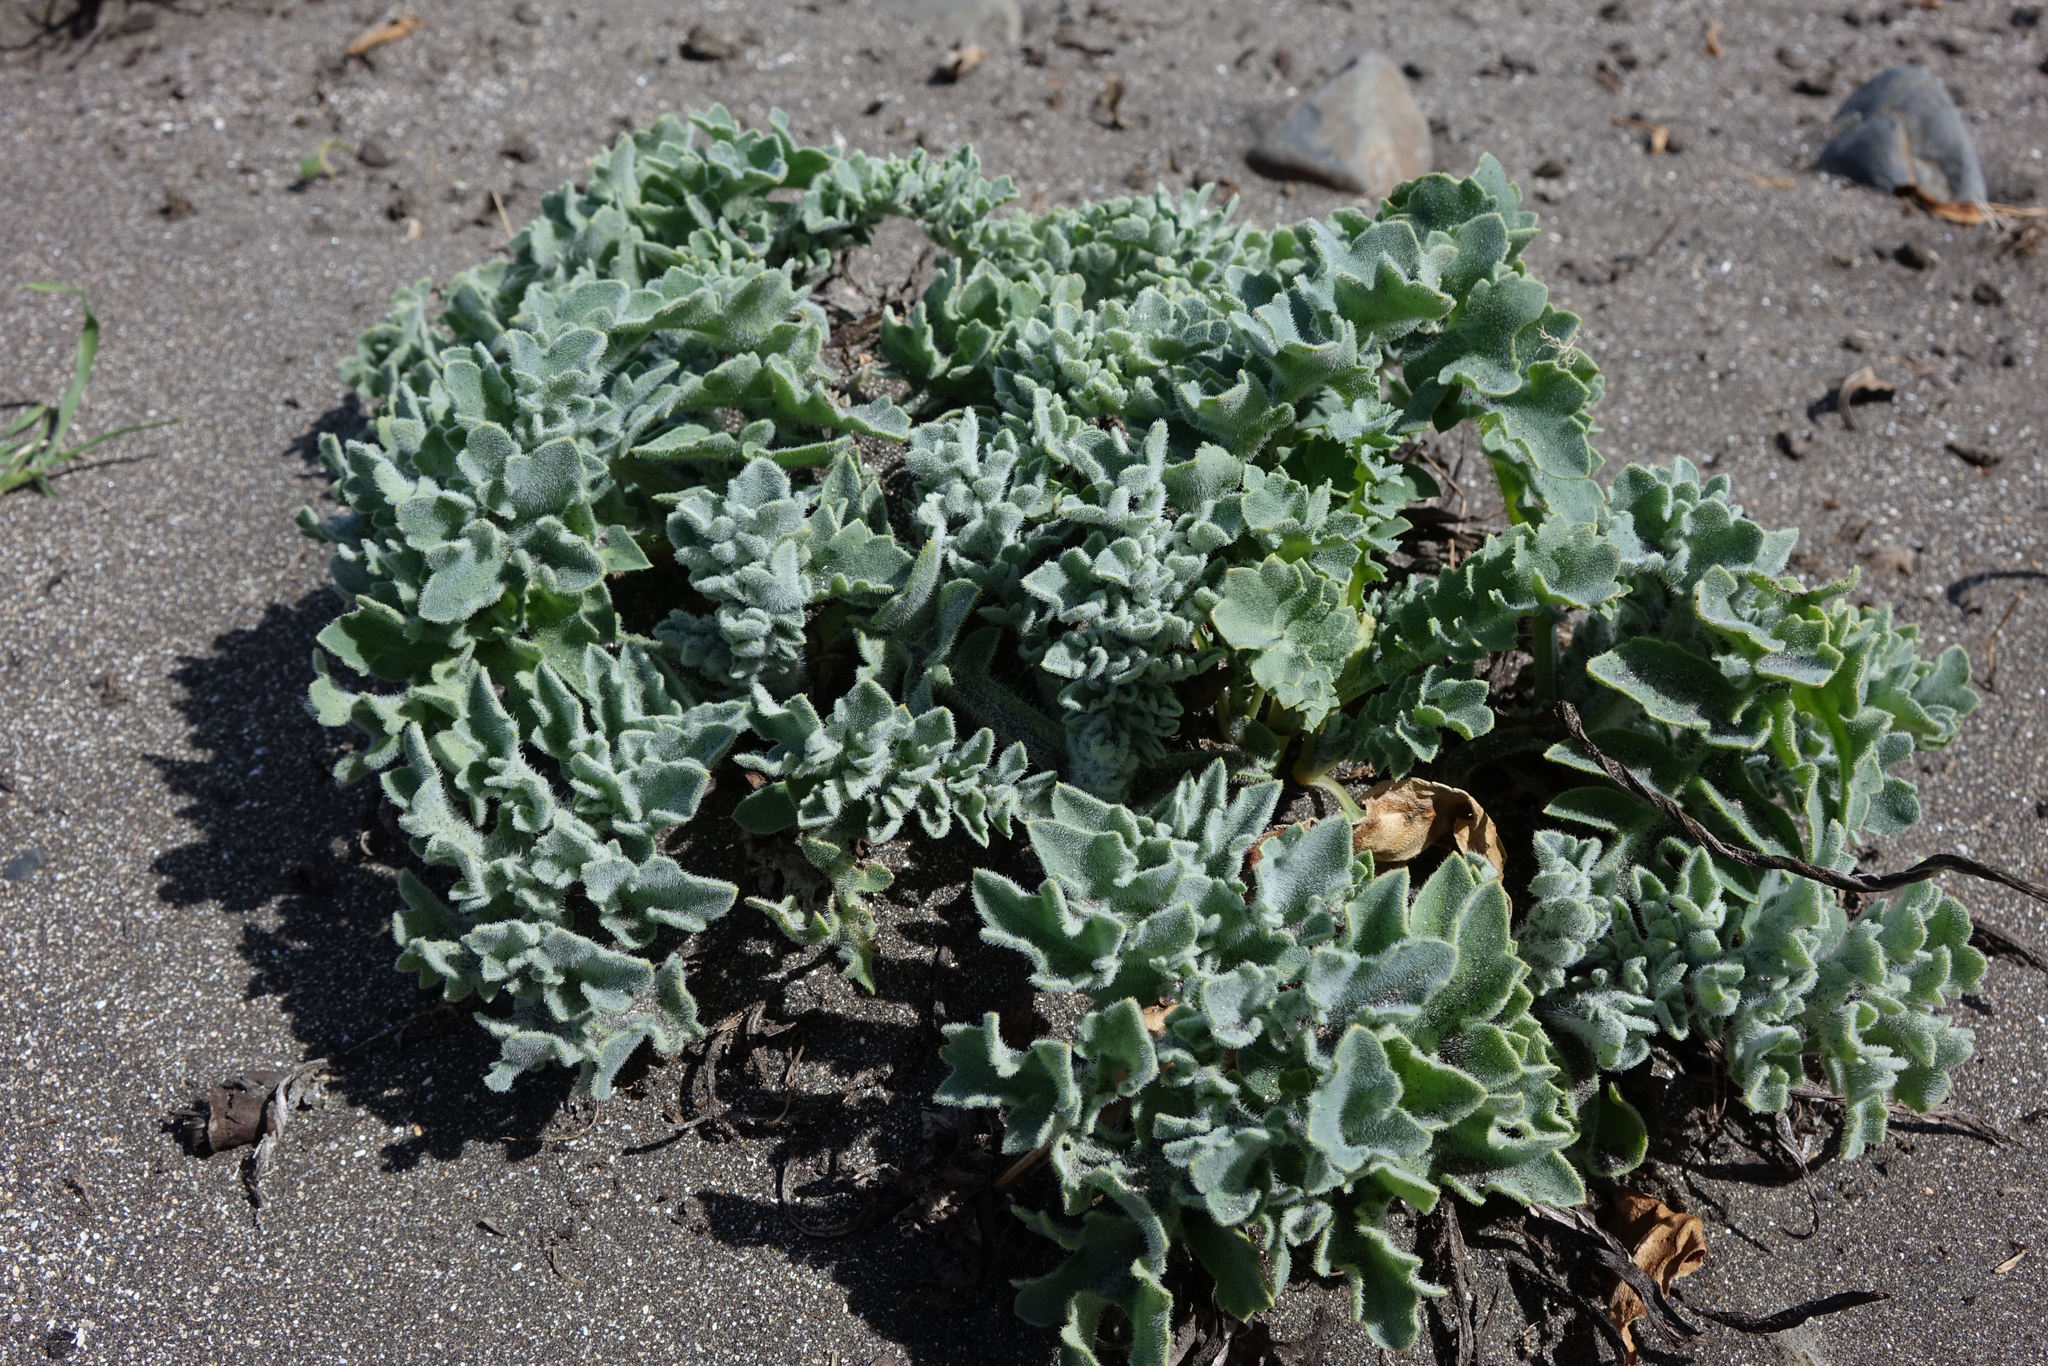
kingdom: Plantae
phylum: Tracheophyta
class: Magnoliopsida
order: Ranunculales
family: Papaveraceae
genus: Glaucium
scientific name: Glaucium flavum
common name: Yellow horned-poppy
